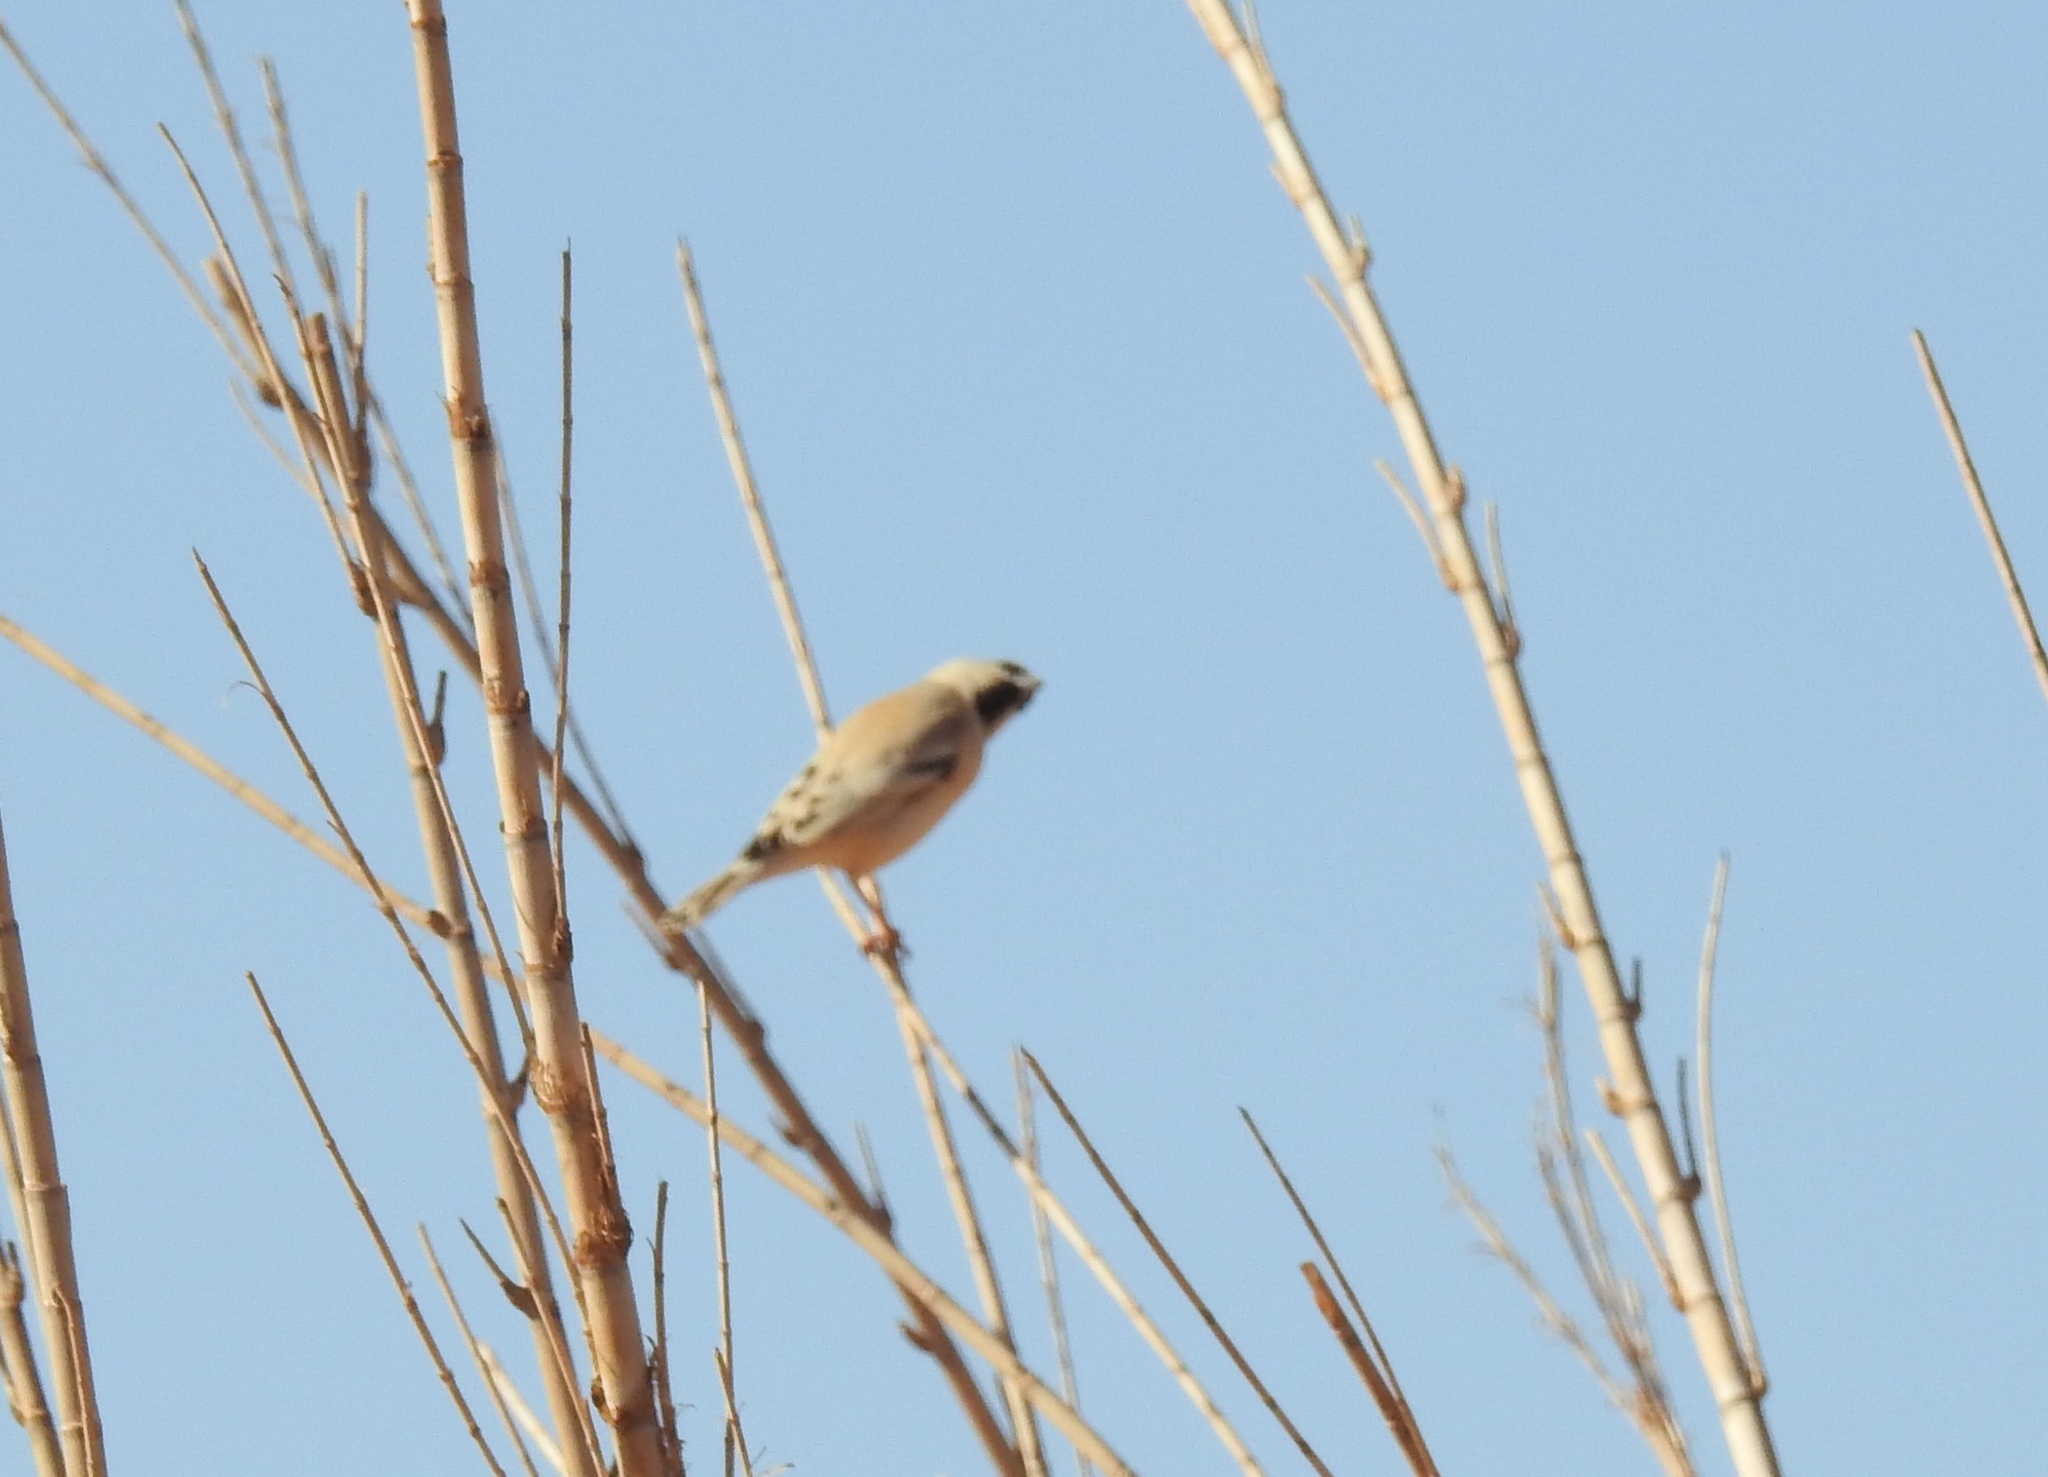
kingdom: Animalia
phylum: Chordata
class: Aves
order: Passeriformes
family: Passeridae
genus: Passer
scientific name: Passer simplex
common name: Desert sparrow
